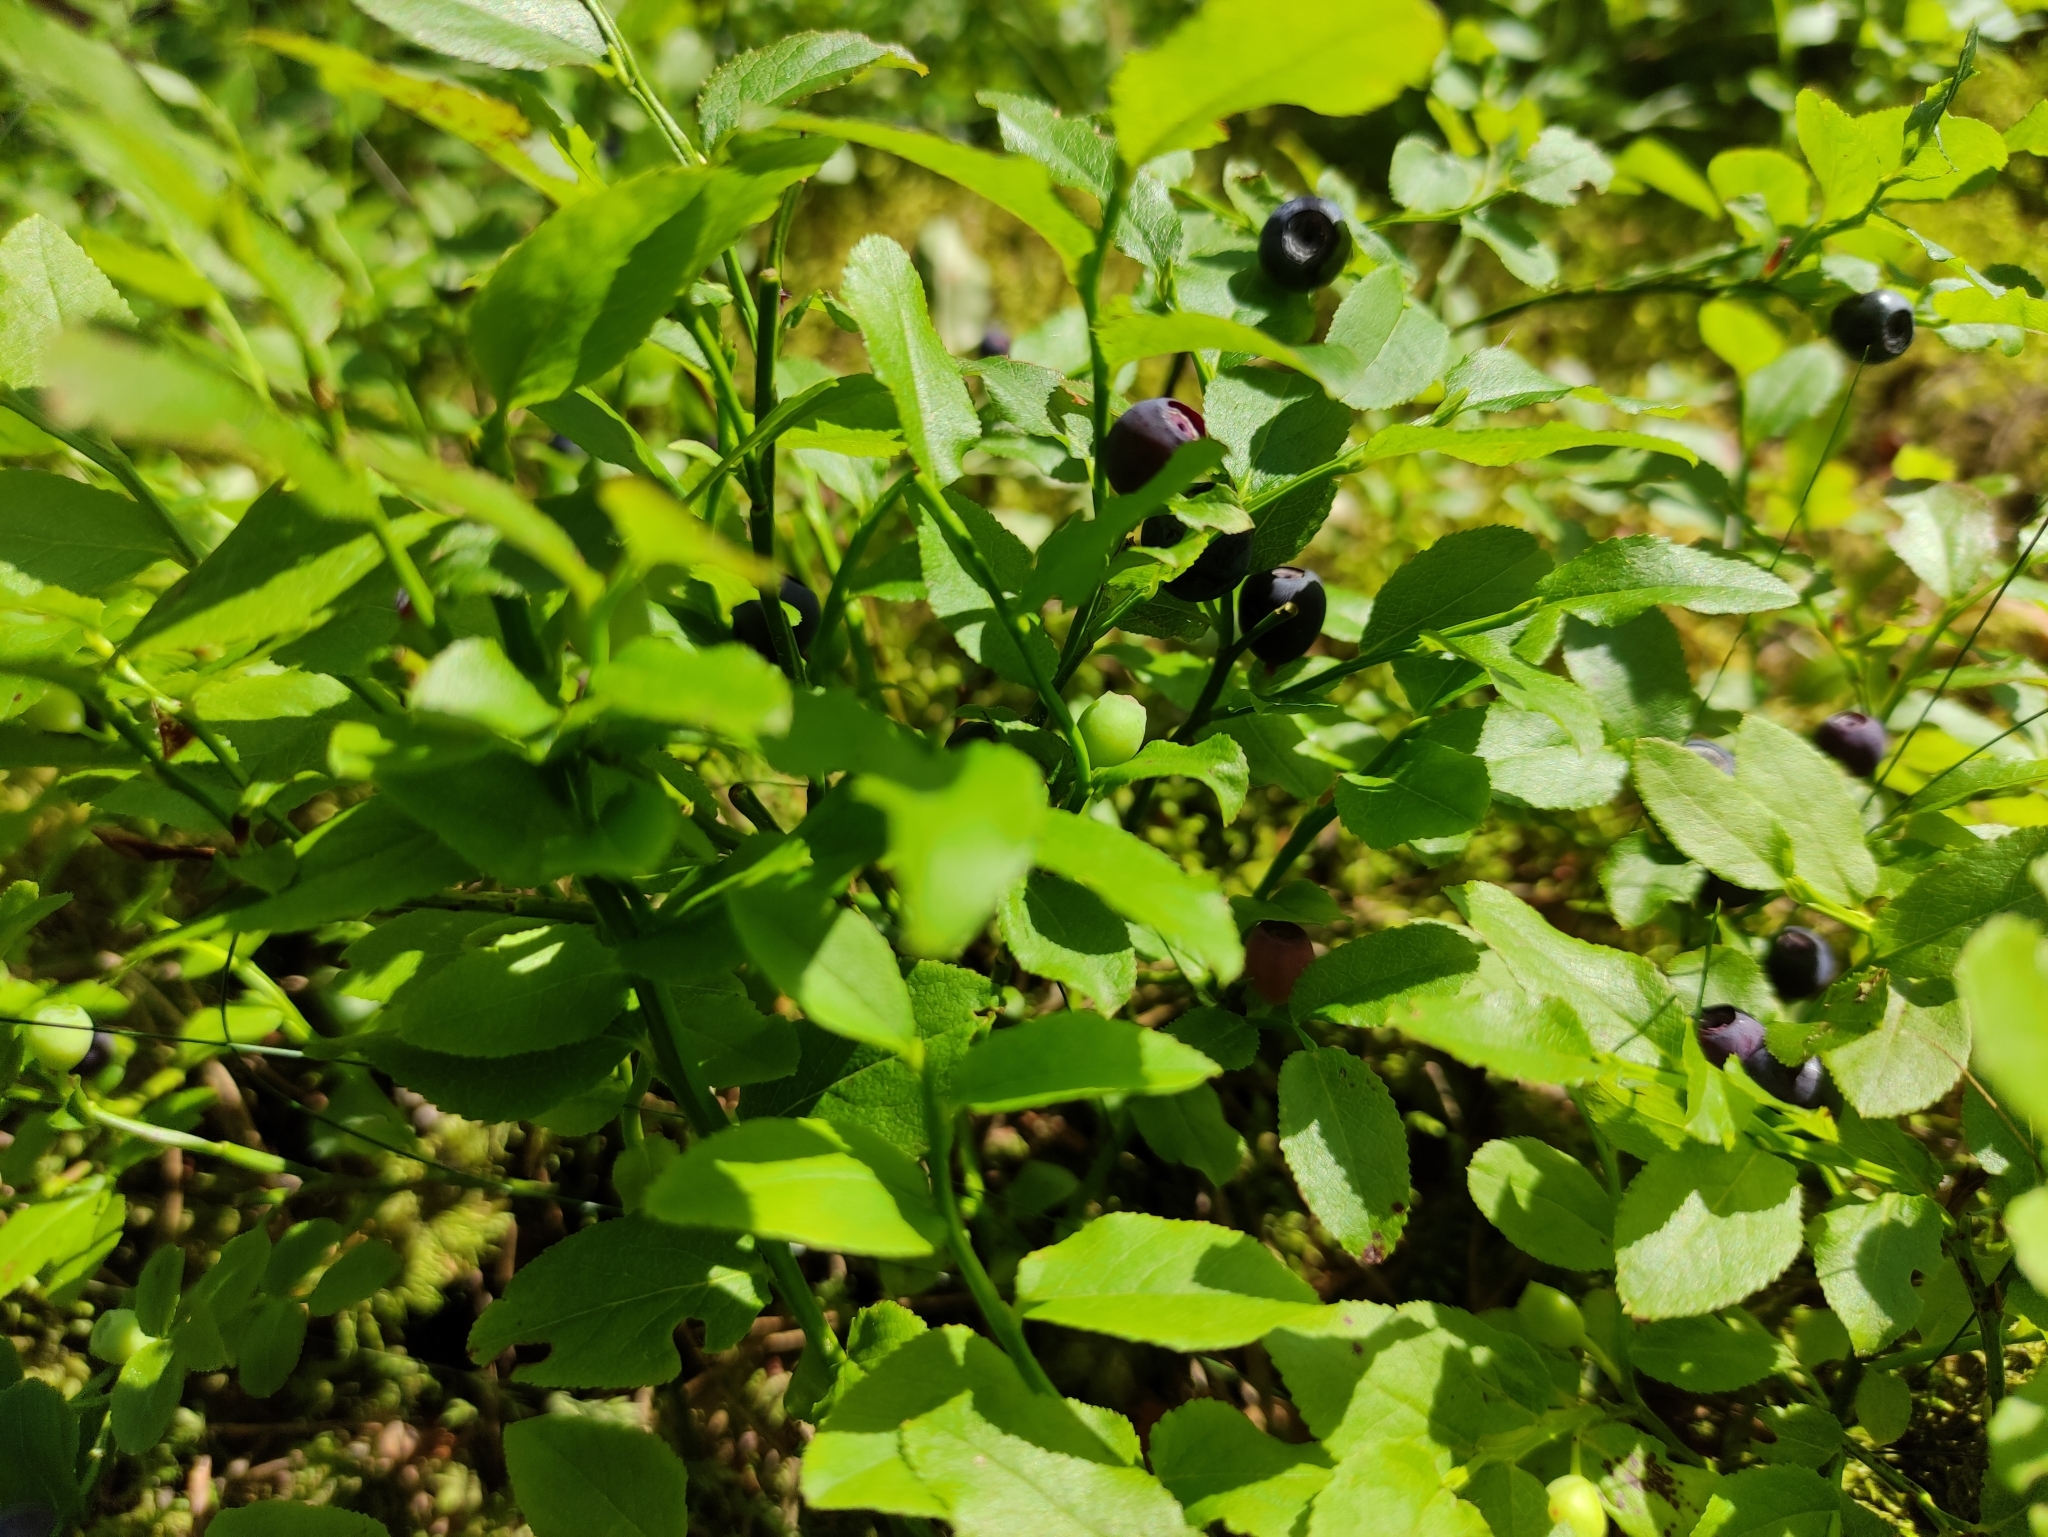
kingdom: Plantae
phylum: Tracheophyta
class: Magnoliopsida
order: Ericales
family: Ericaceae
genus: Vaccinium
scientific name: Vaccinium myrtillus
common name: Bilberry
